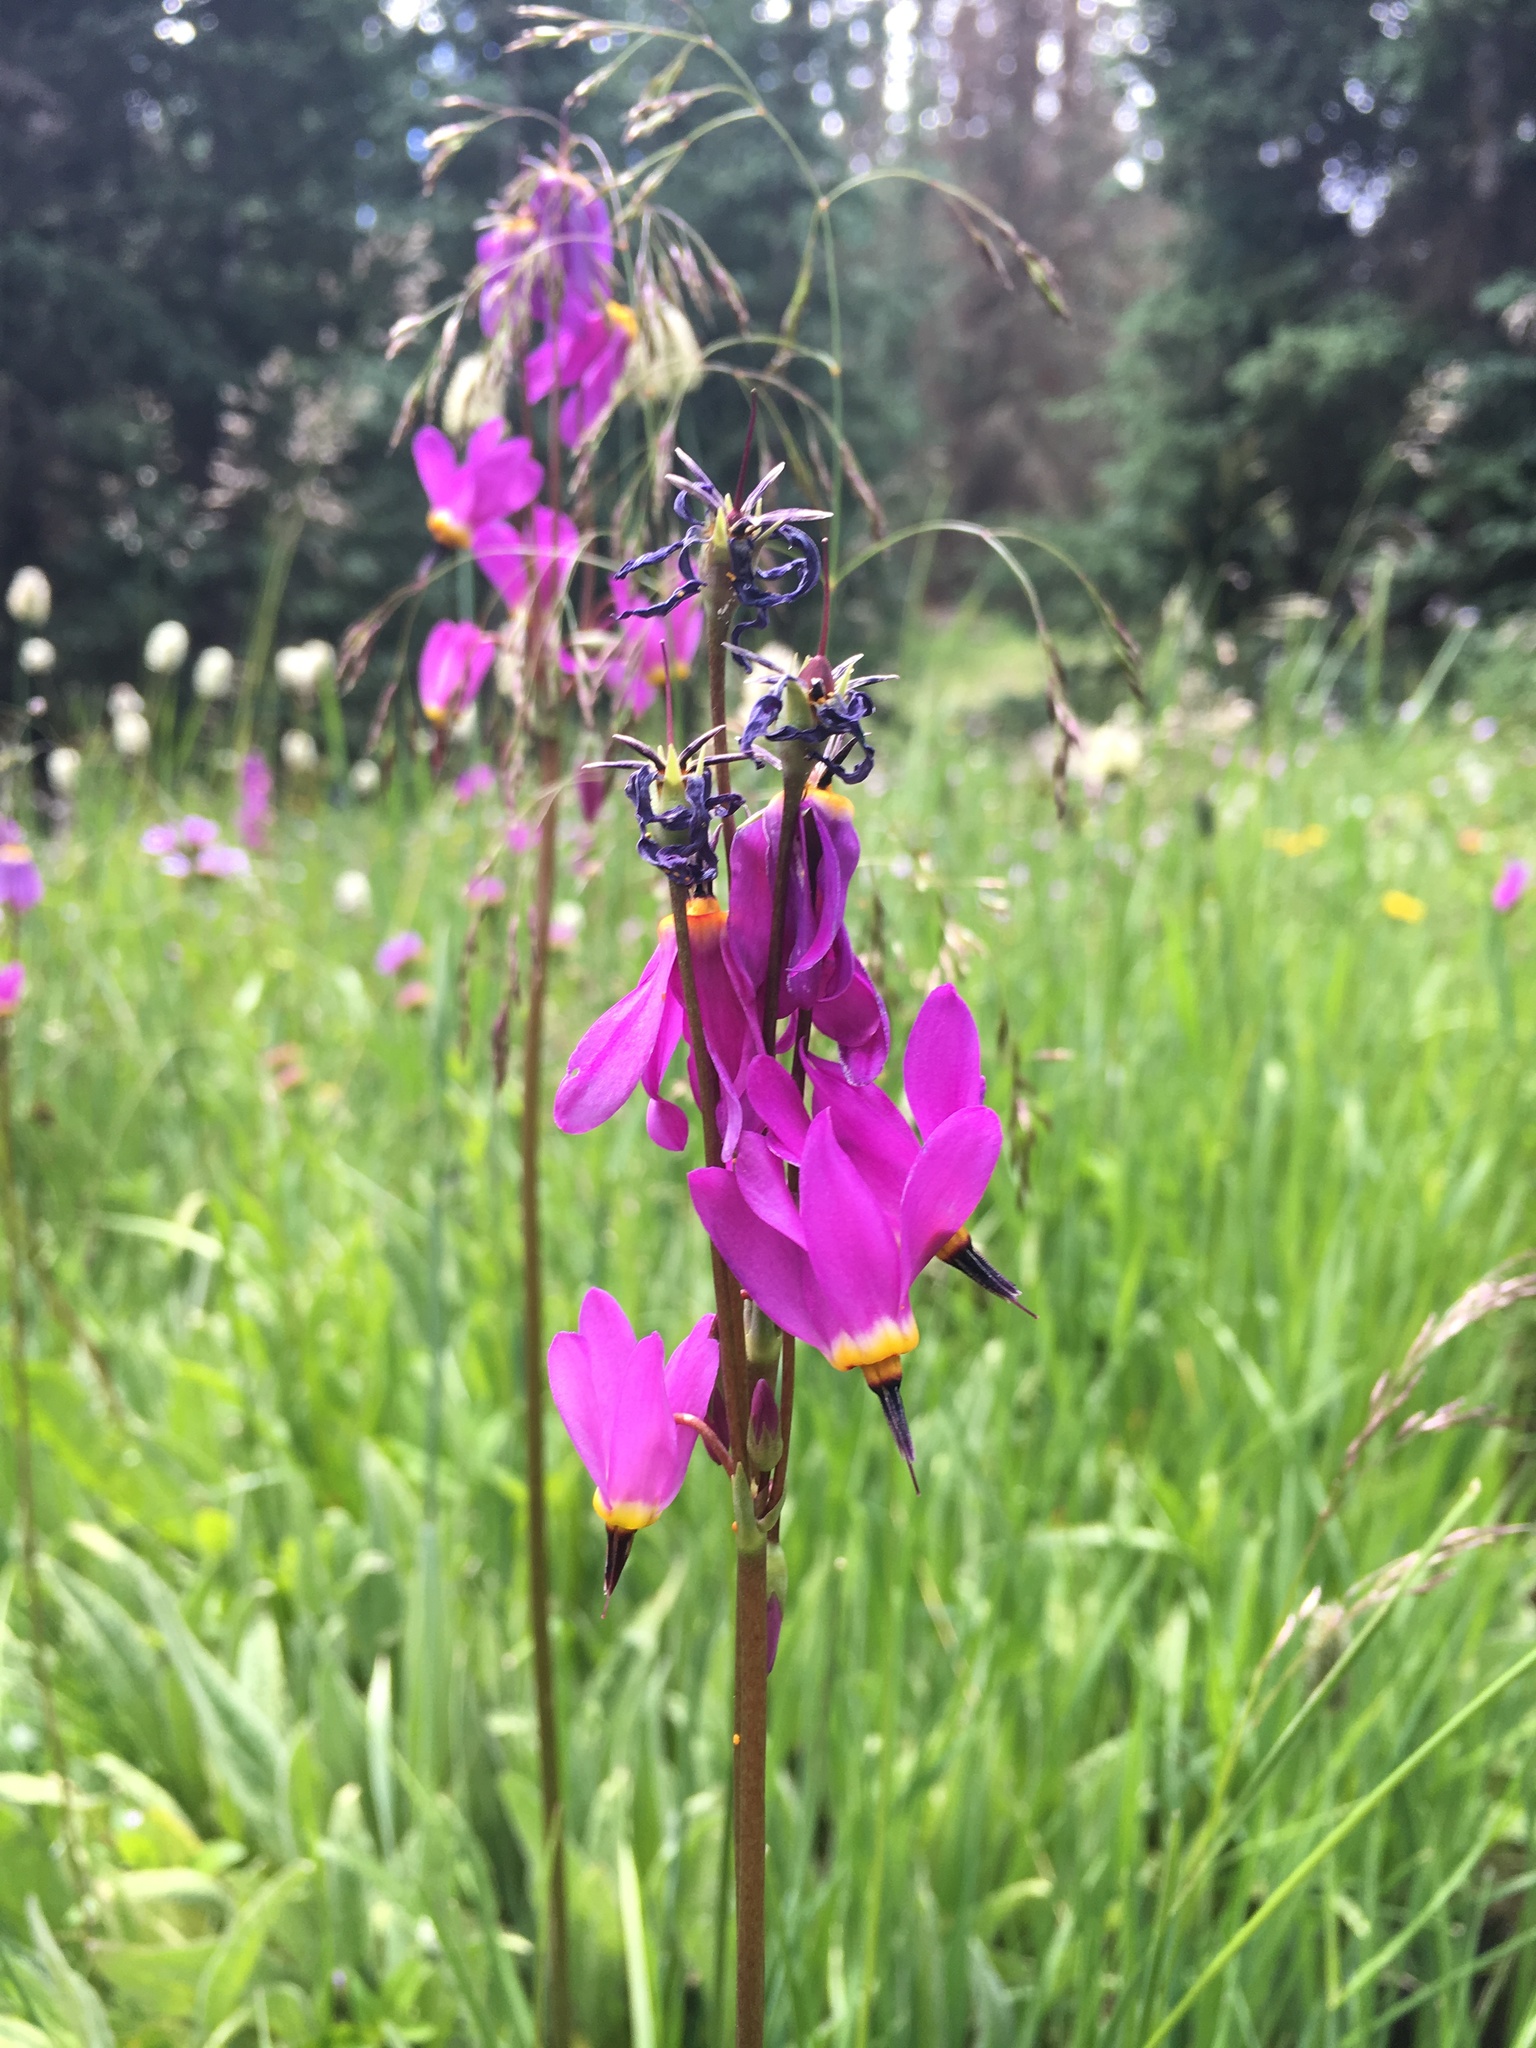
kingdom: Plantae
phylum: Tracheophyta
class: Magnoliopsida
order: Ericales
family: Primulaceae
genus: Dodecatheon
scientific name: Dodecatheon pulchellum
